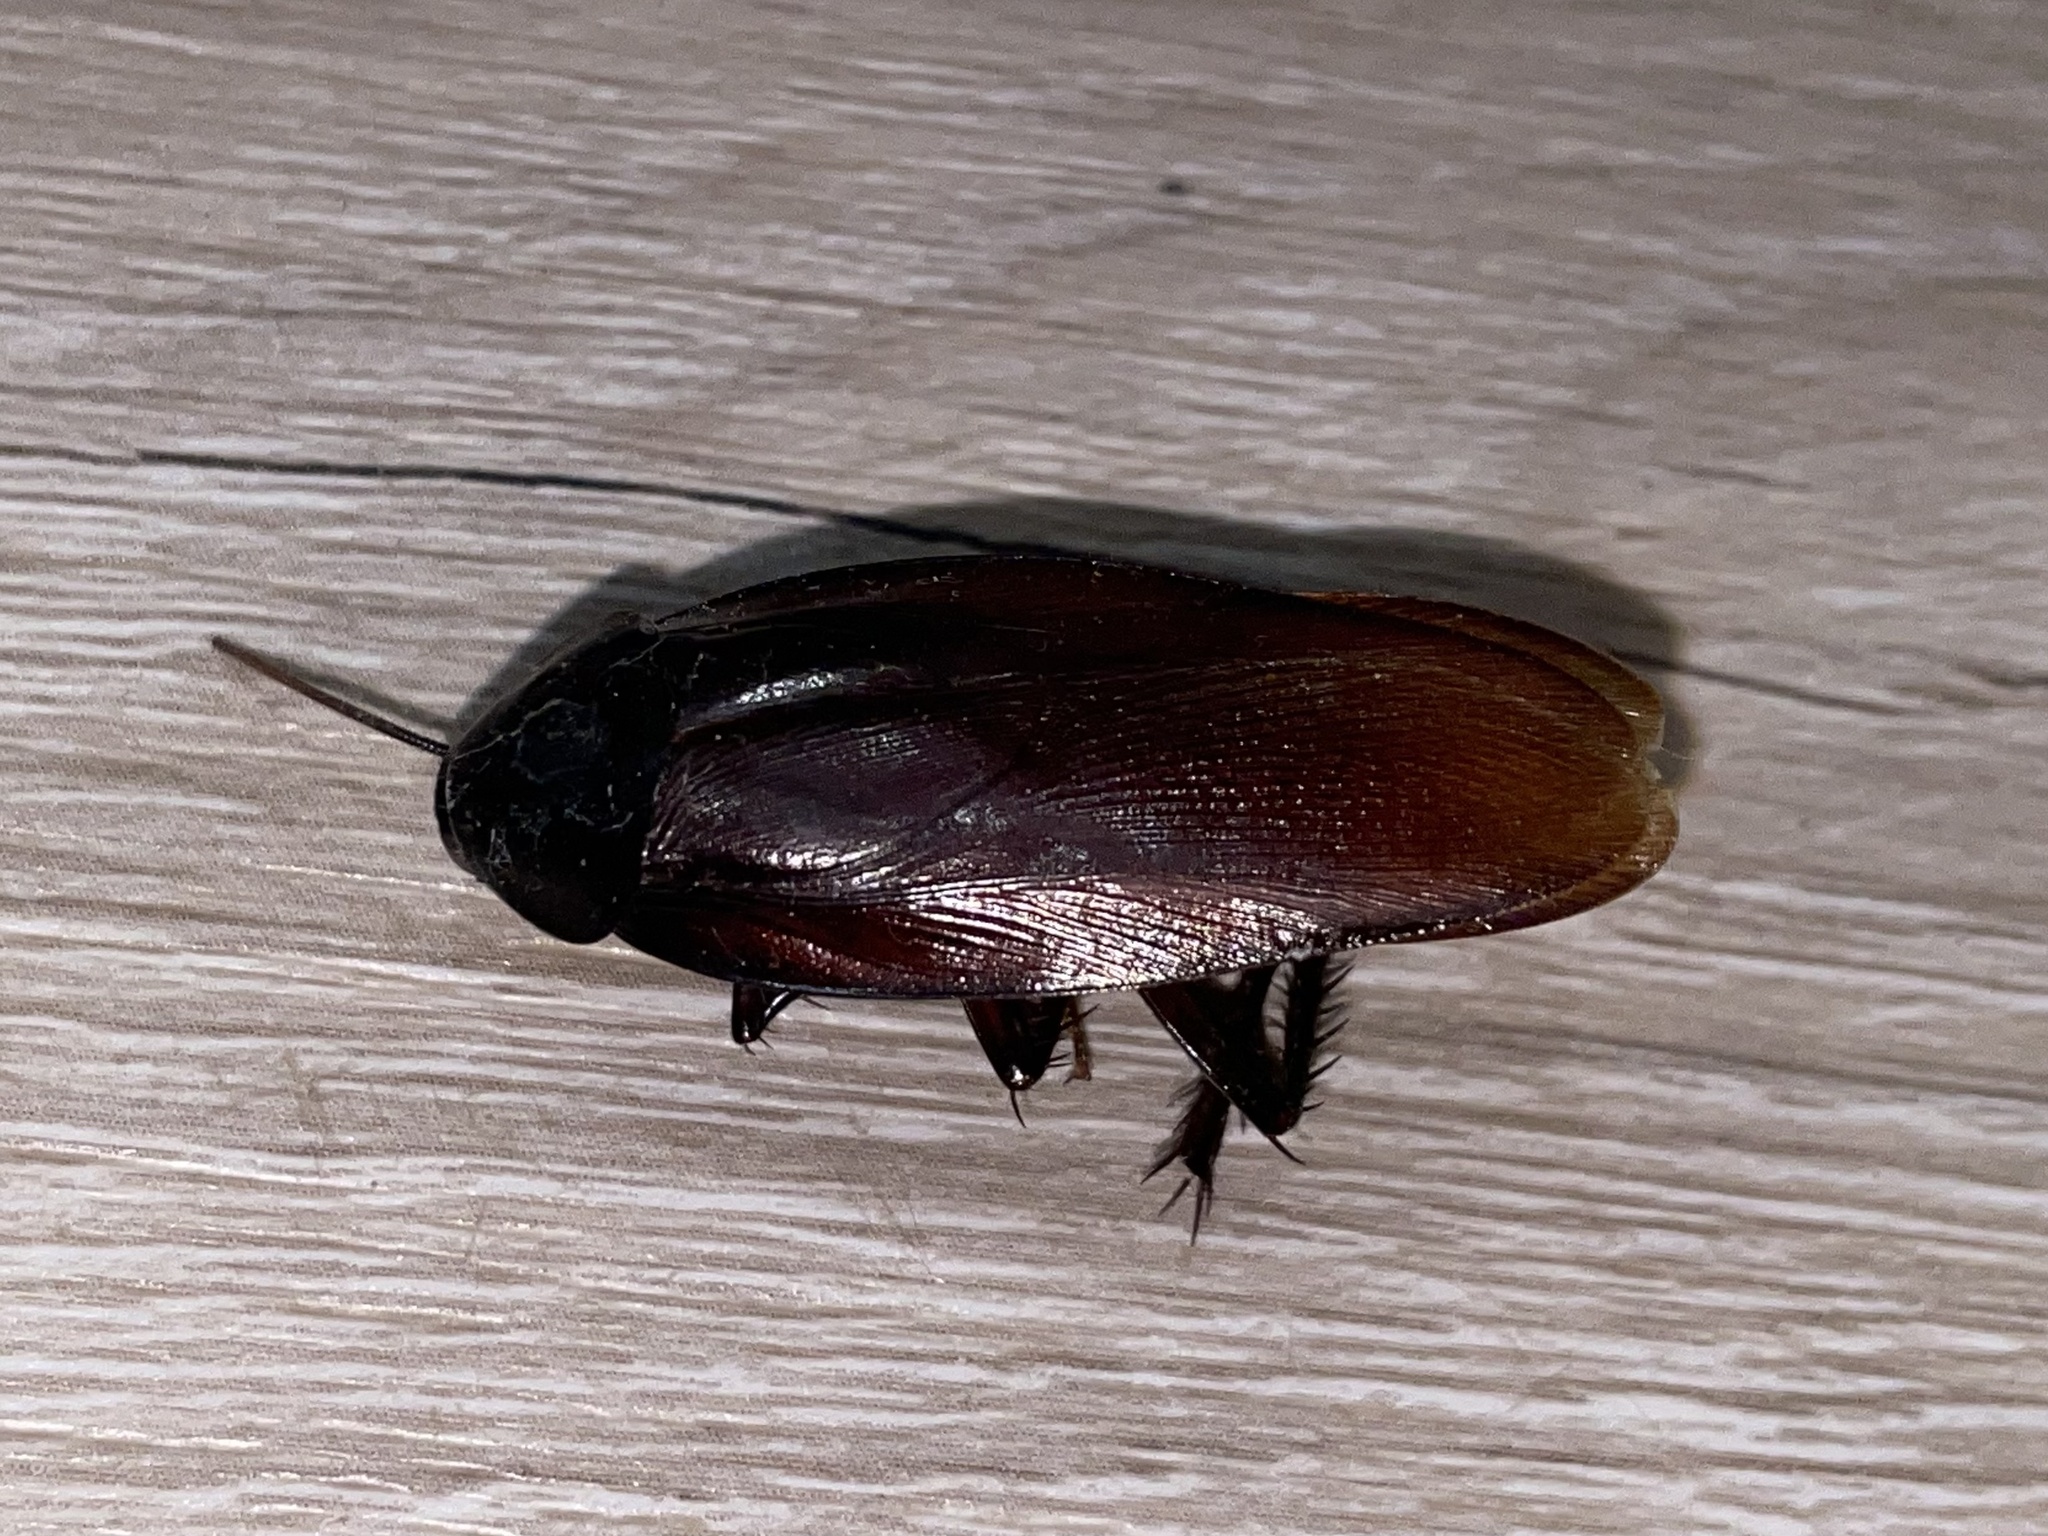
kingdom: Animalia
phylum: Arthropoda
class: Insecta
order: Blattodea
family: Blattidae
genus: Periplaneta
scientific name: Periplaneta fuliginosa
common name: Smokeybrown cockroad
